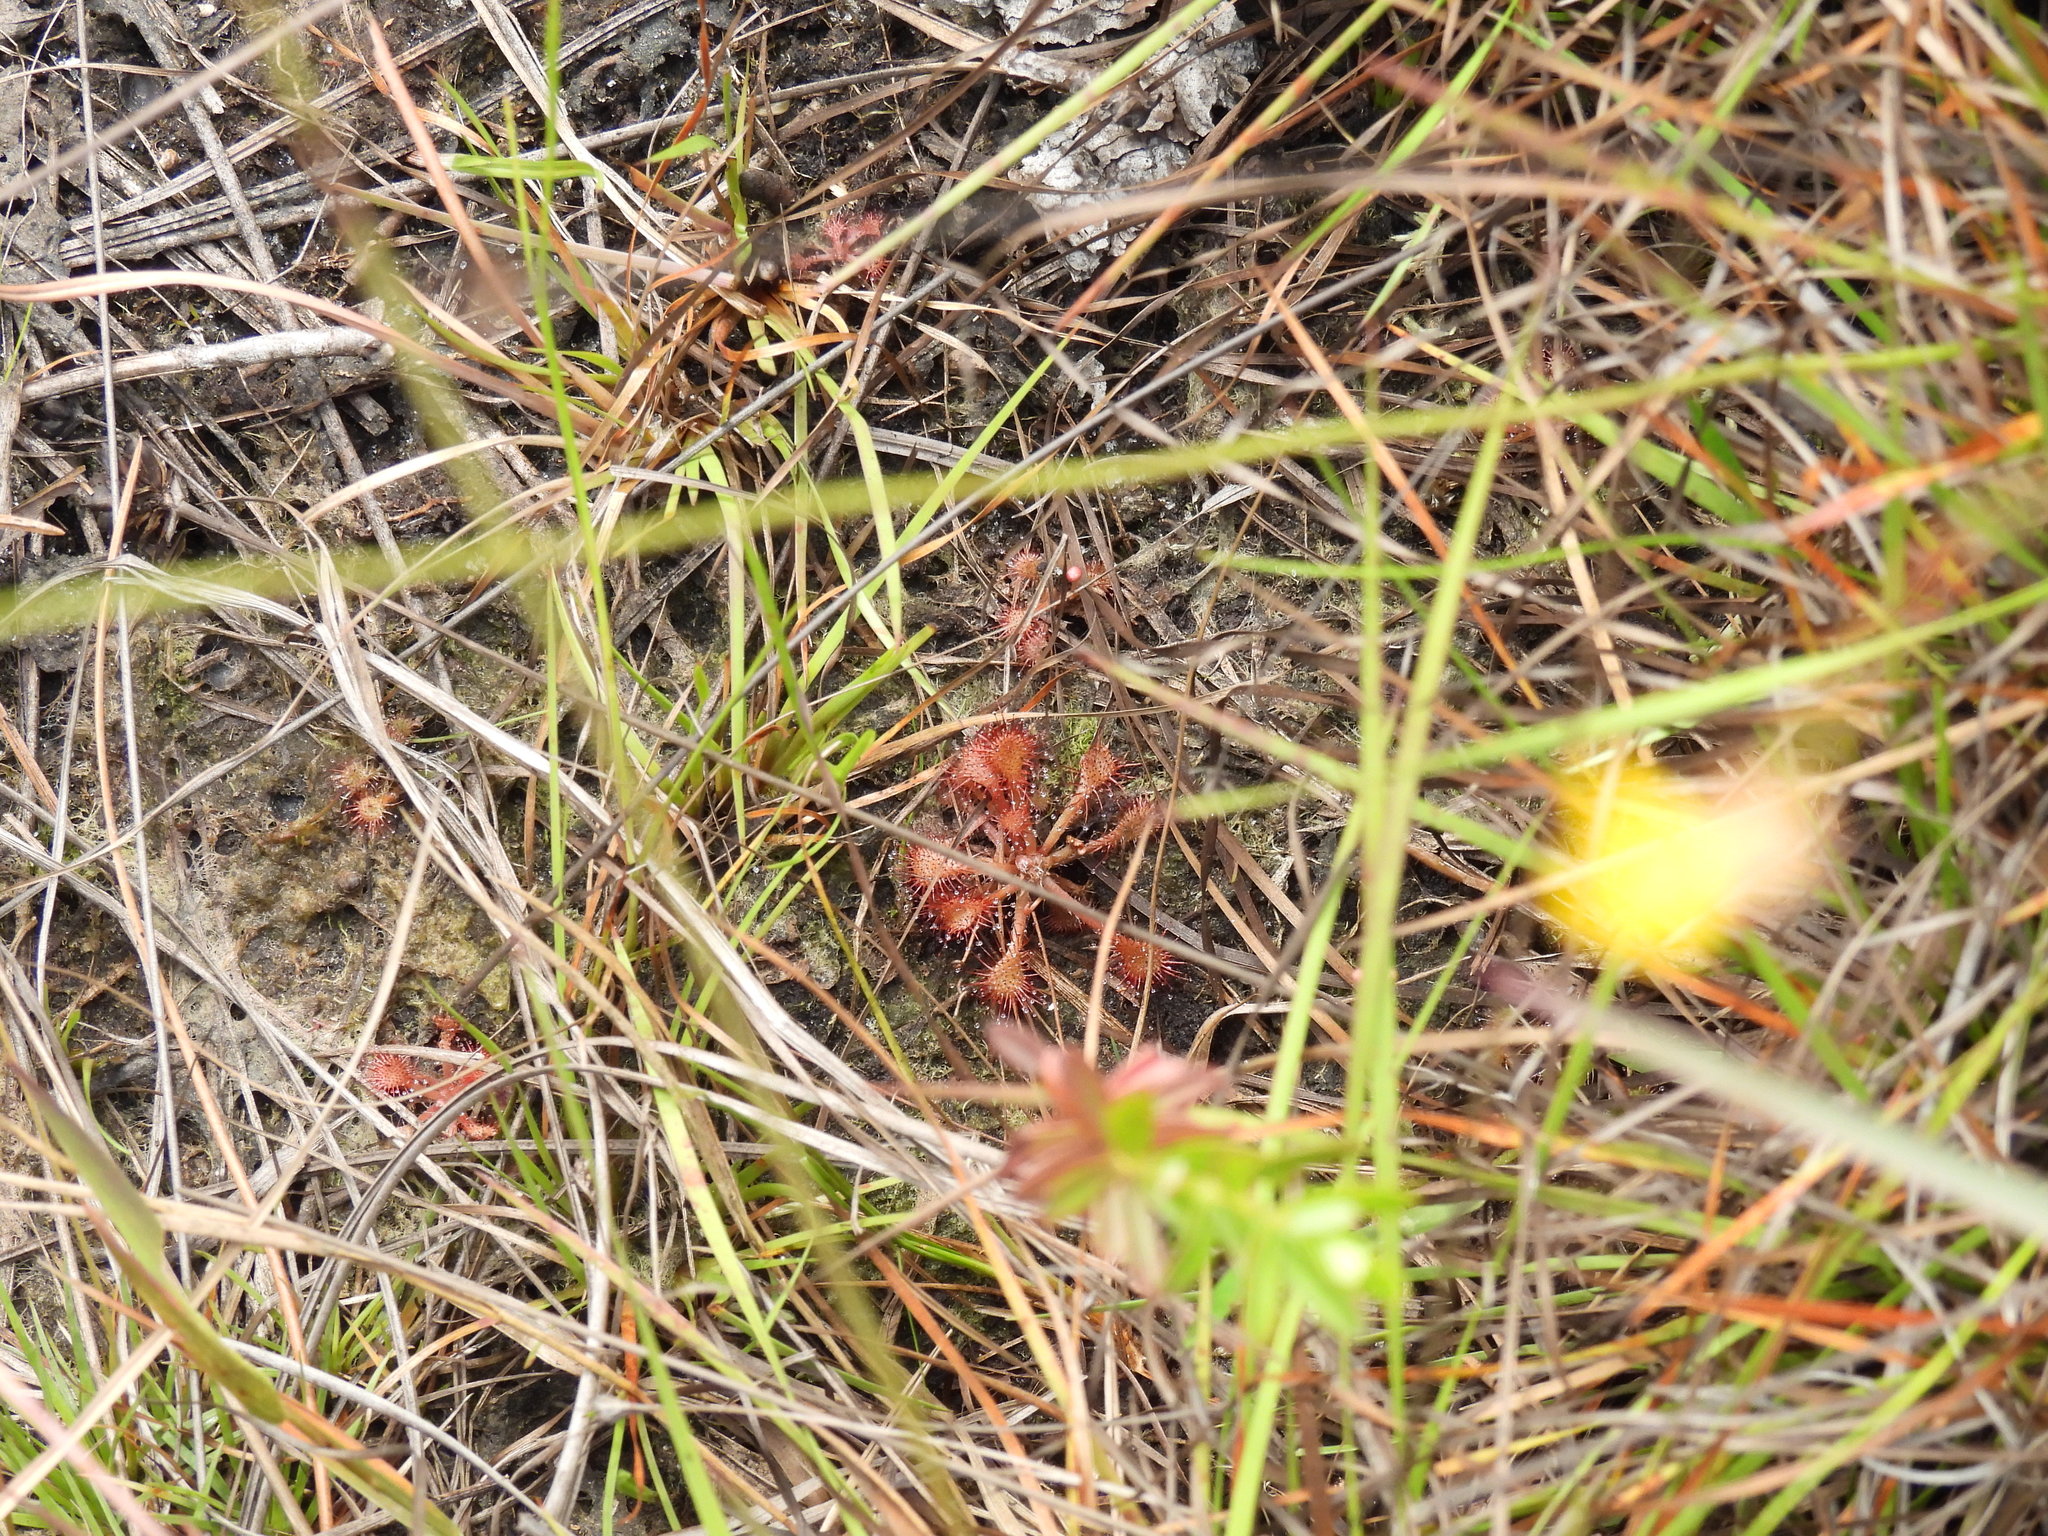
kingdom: Plantae
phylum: Tracheophyta
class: Magnoliopsida
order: Caryophyllales
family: Droseraceae
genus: Drosera
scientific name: Drosera capillaris
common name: Pink sundew
